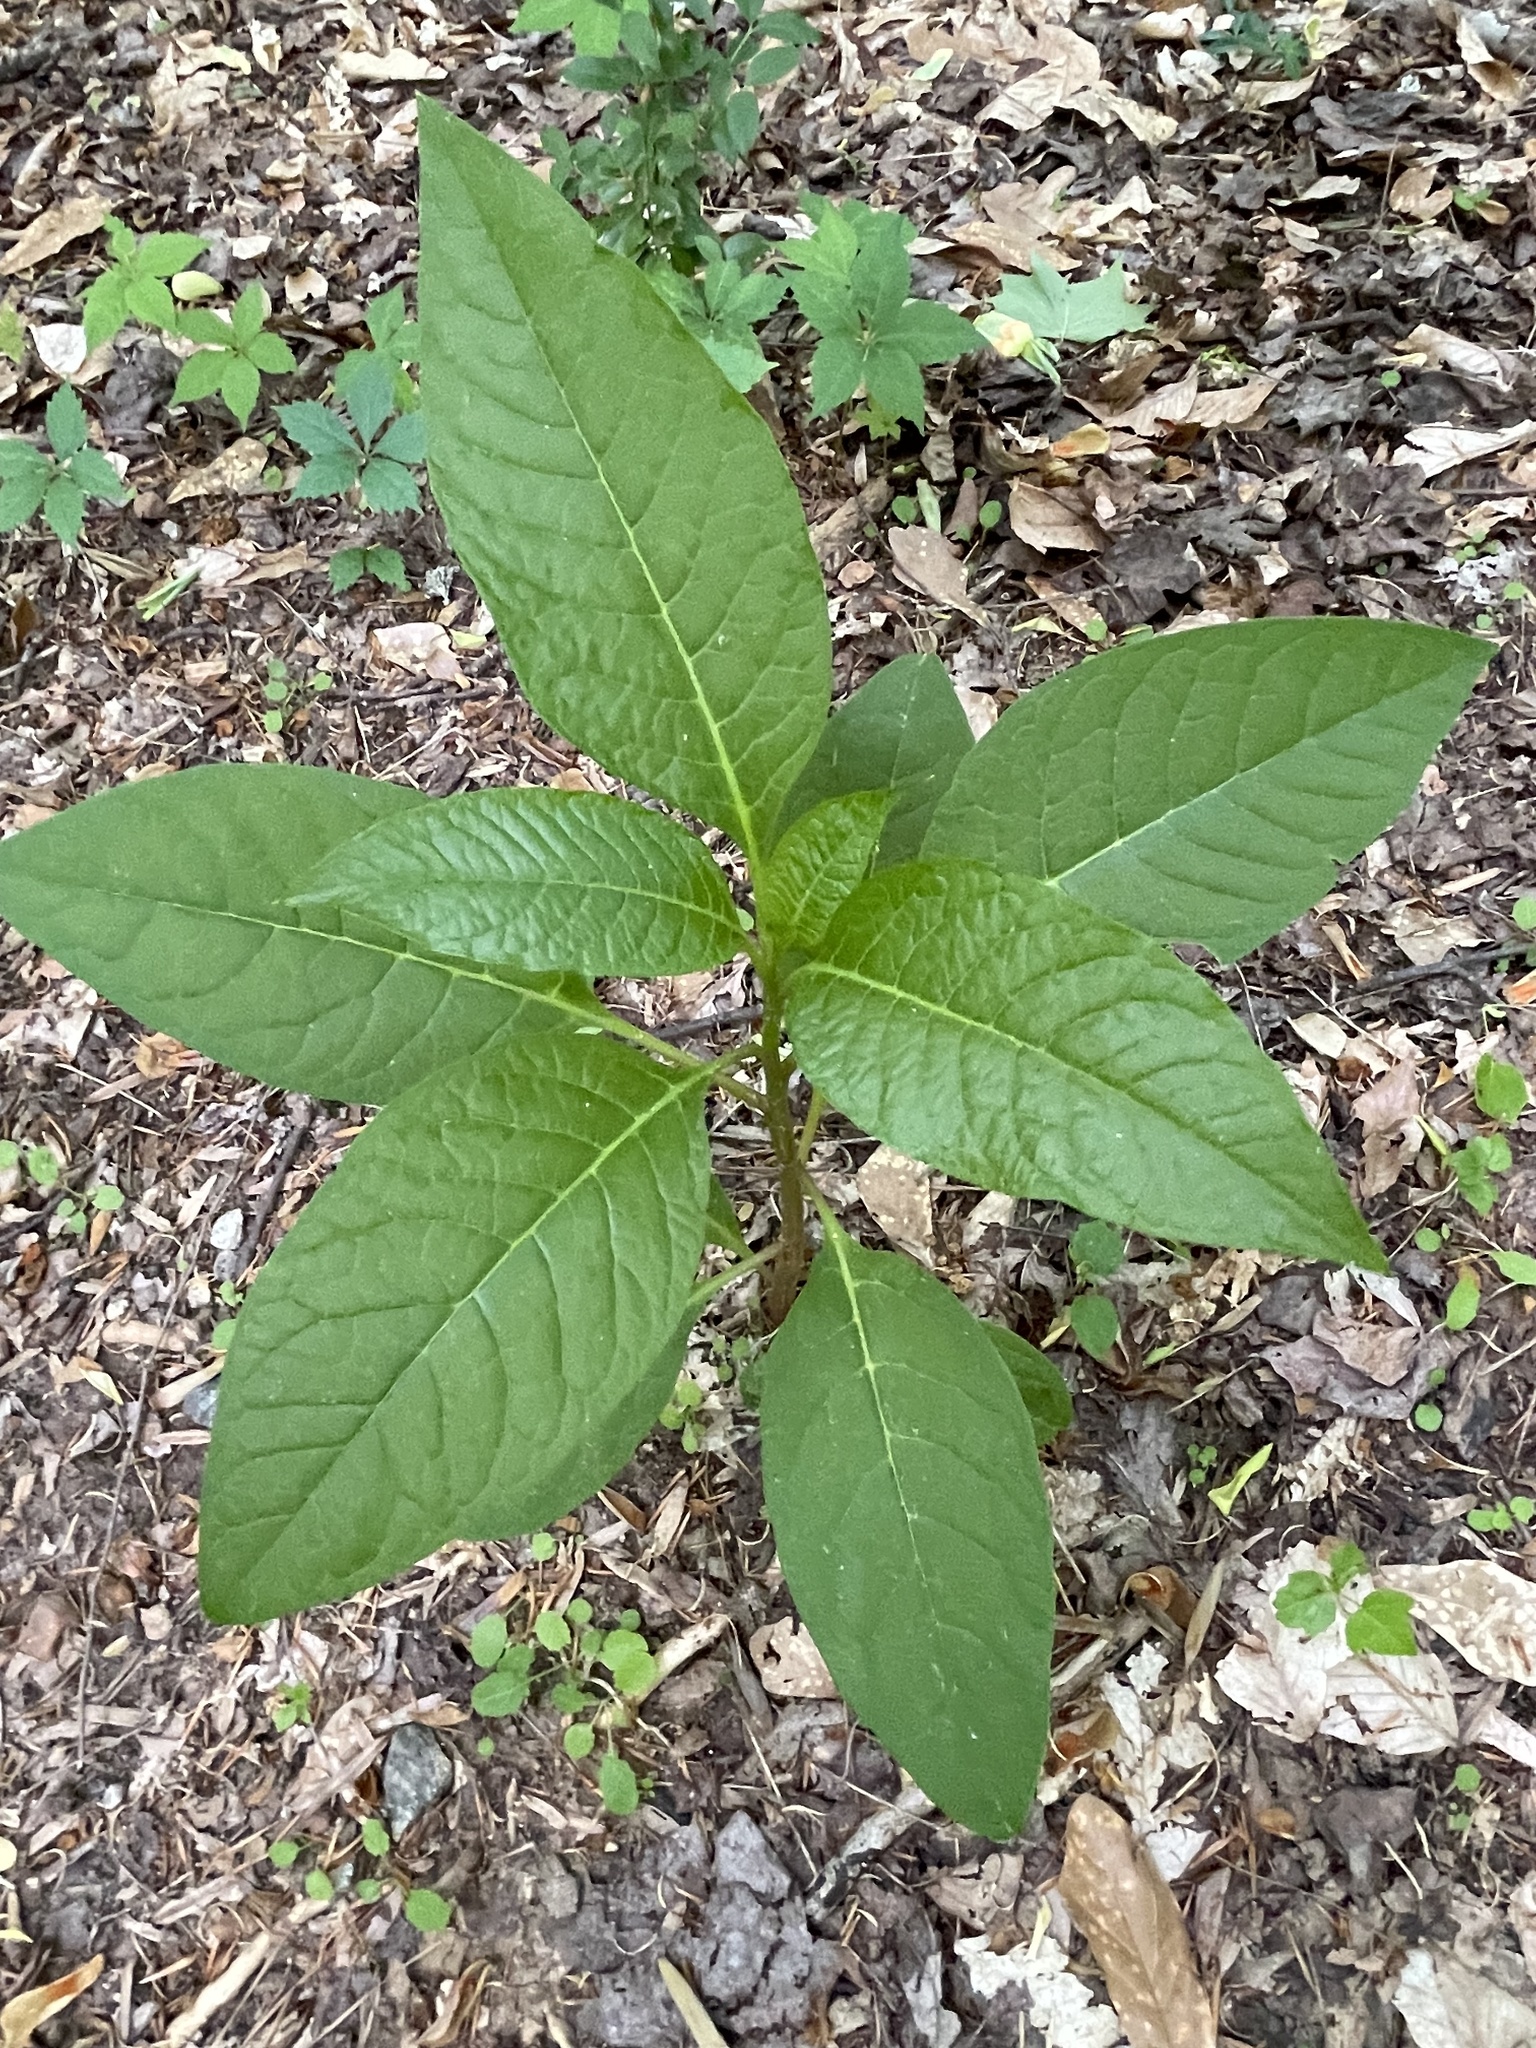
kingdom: Plantae
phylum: Tracheophyta
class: Magnoliopsida
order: Caryophyllales
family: Phytolaccaceae
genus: Phytolacca
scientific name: Phytolacca americana
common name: American pokeweed
